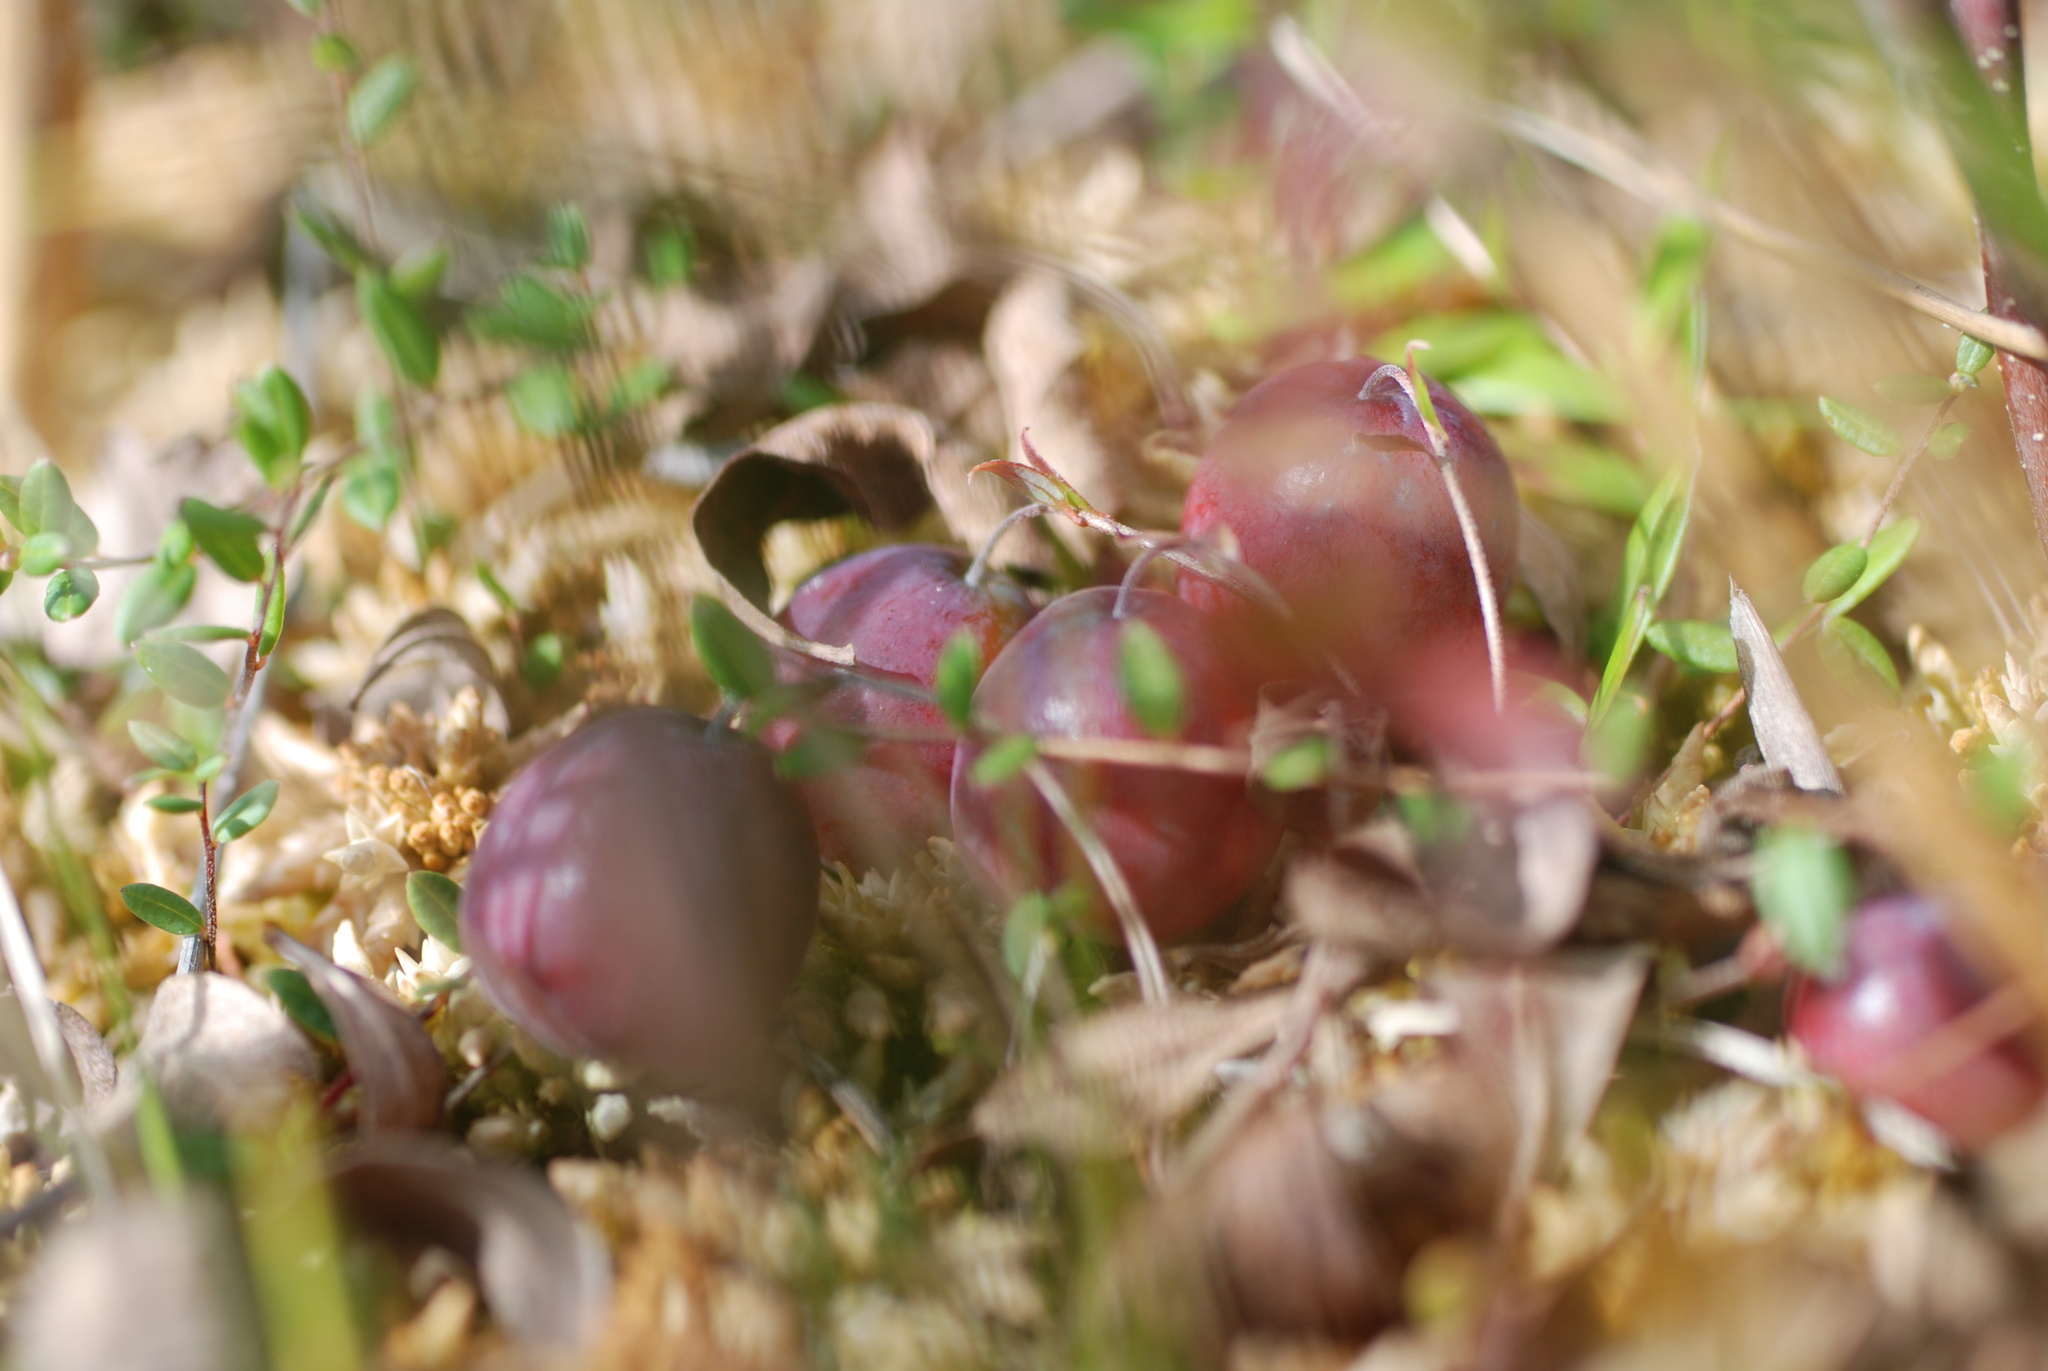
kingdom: Plantae
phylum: Tracheophyta
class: Magnoliopsida
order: Ericales
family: Ericaceae
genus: Vaccinium
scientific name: Vaccinium macrocarpon
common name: American cranberry
